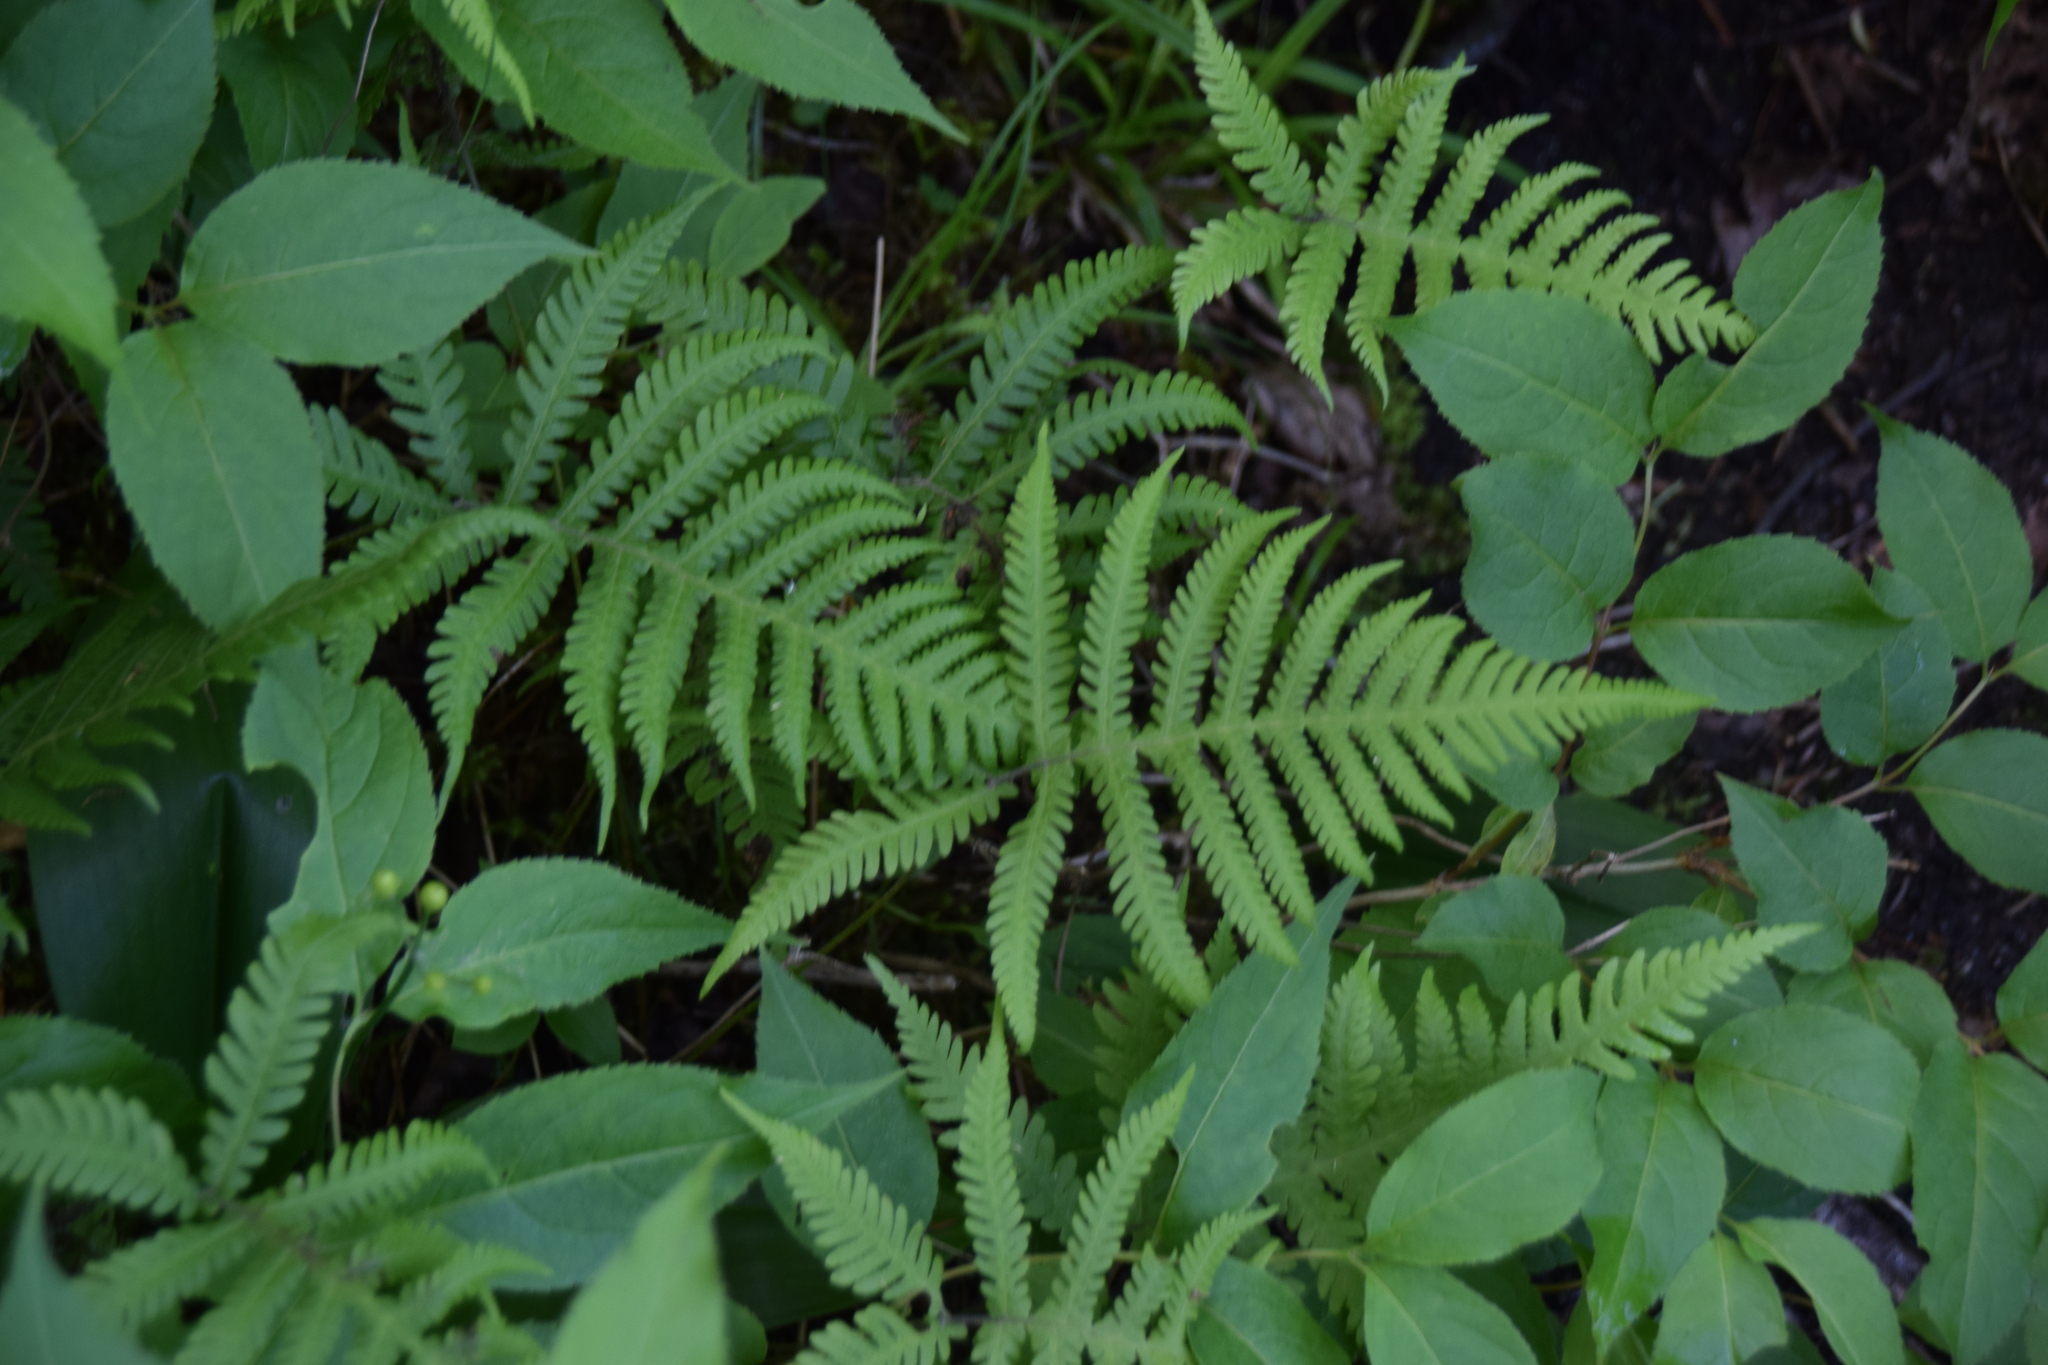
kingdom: Plantae
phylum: Tracheophyta
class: Polypodiopsida
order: Polypodiales
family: Thelypteridaceae
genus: Phegopteris
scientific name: Phegopteris connectilis
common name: Beech fern
